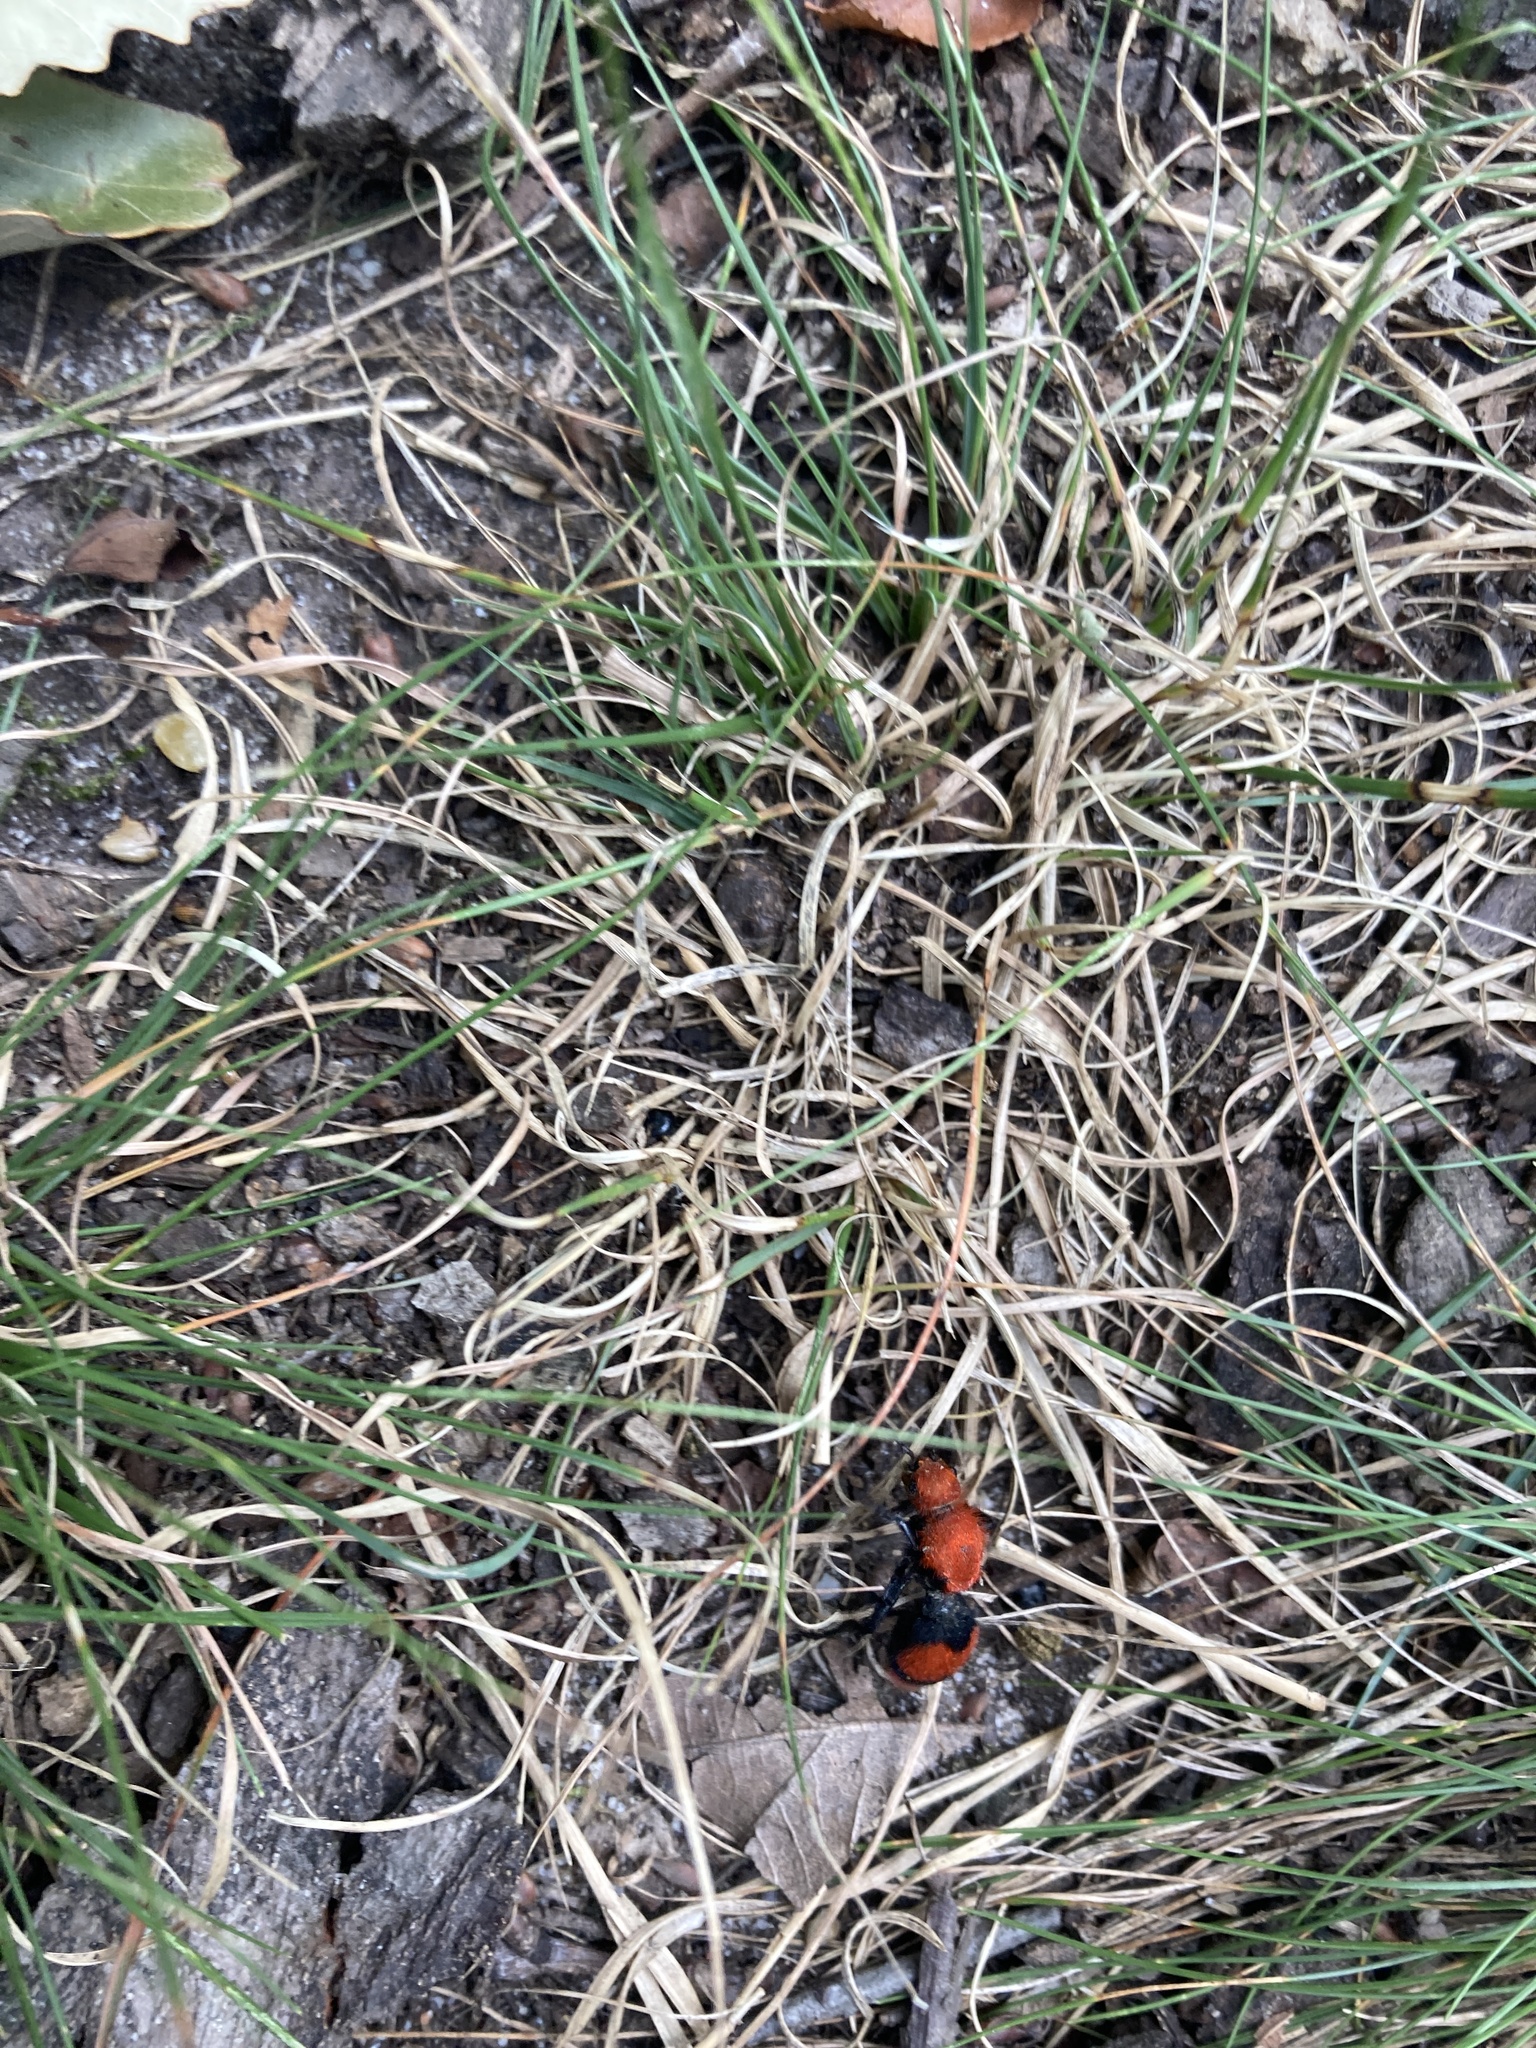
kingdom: Animalia
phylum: Arthropoda
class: Insecta
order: Hymenoptera
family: Mutillidae
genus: Dasymutilla
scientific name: Dasymutilla occidentalis
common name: Common eastern velvet ant
